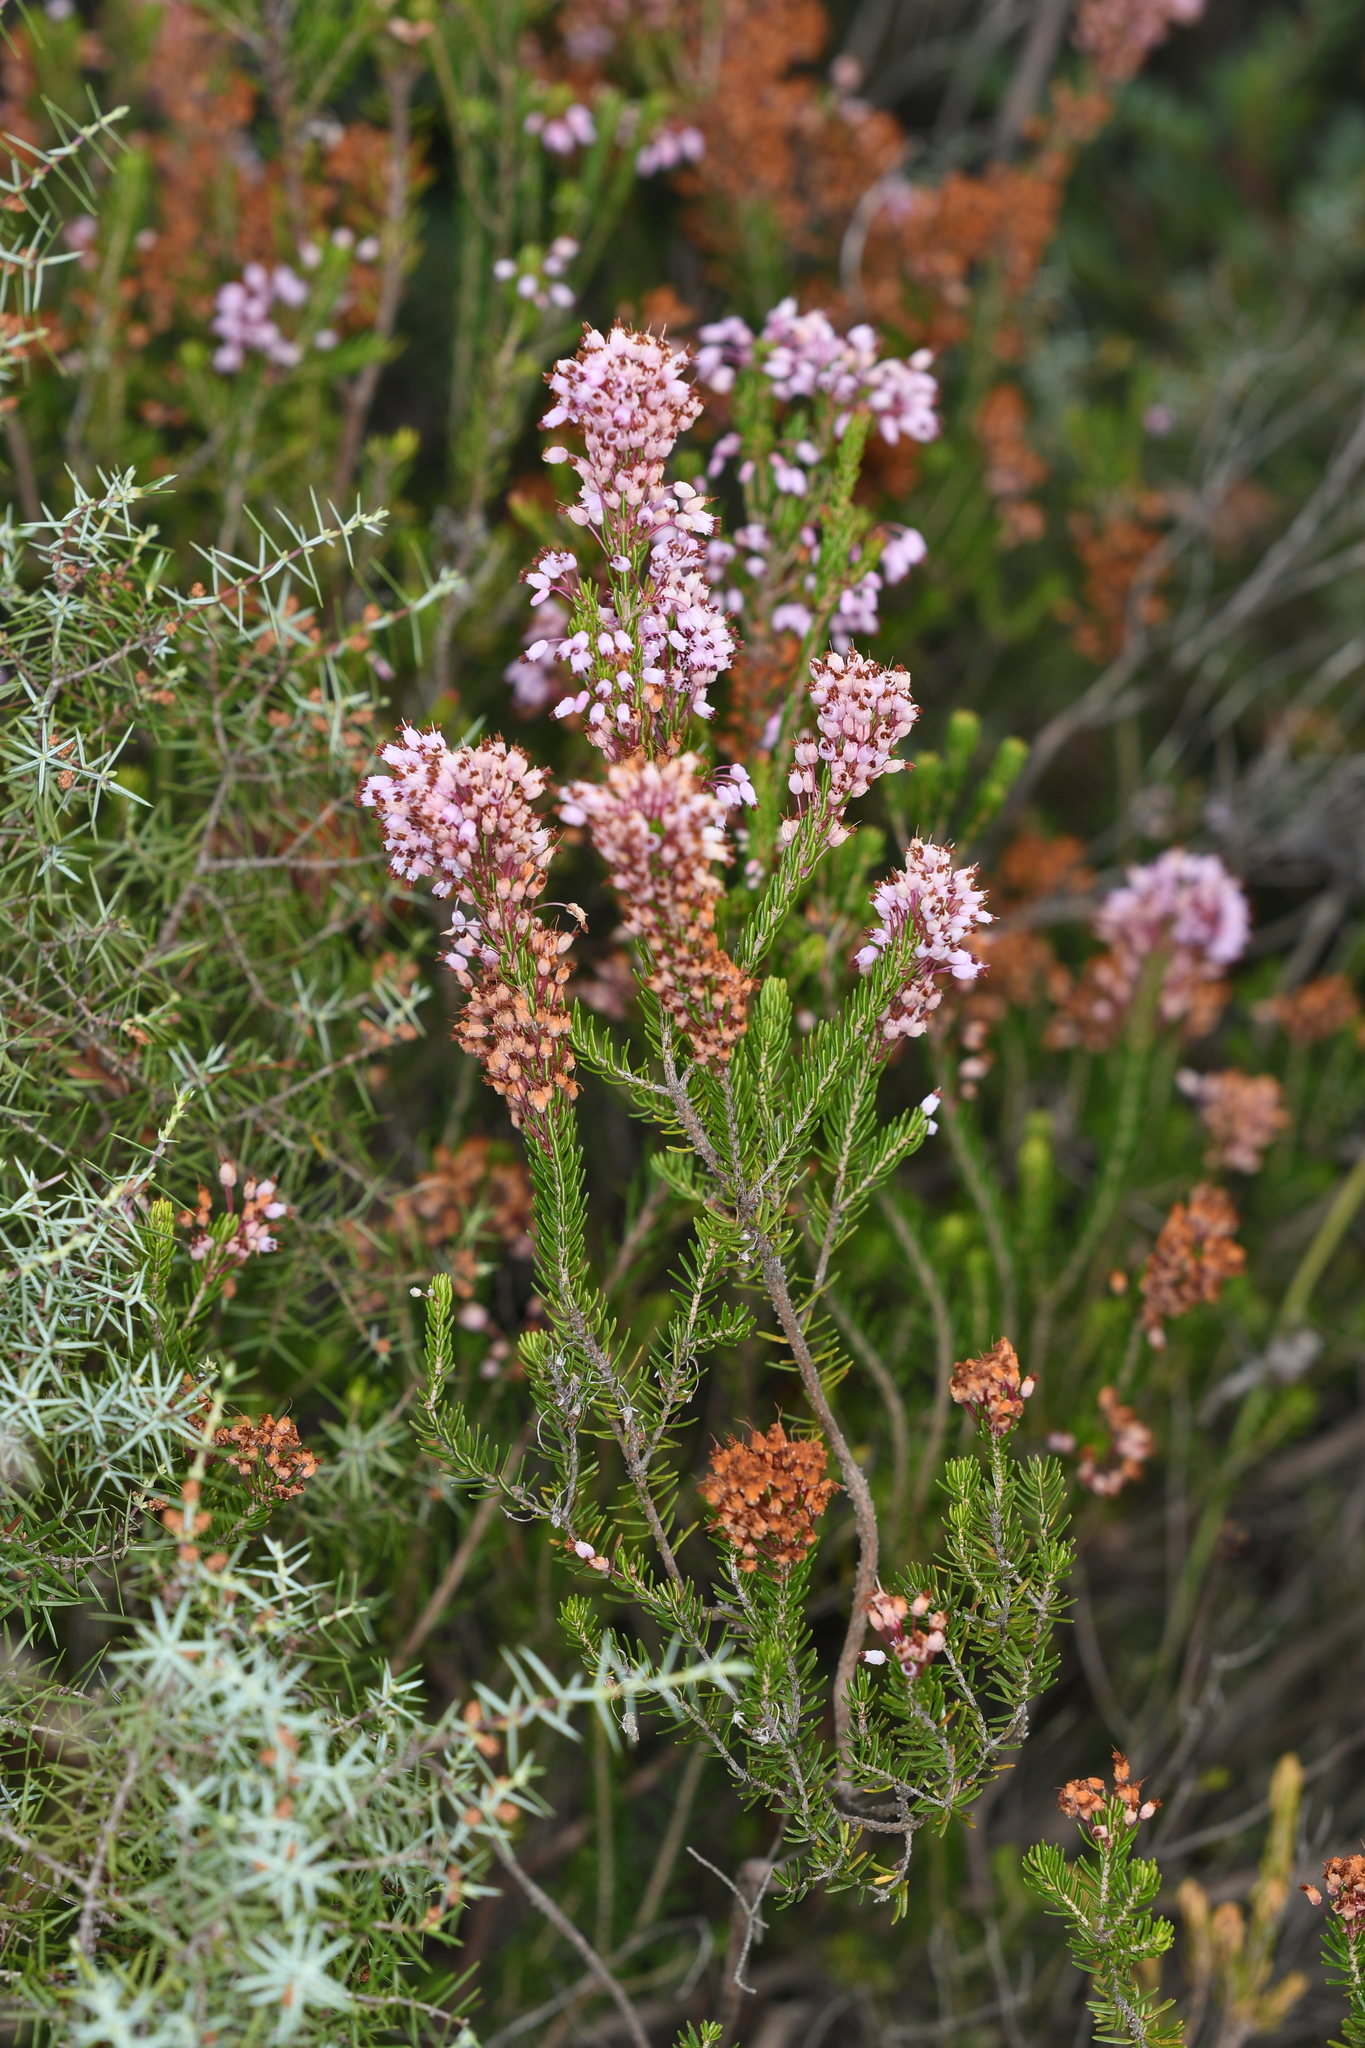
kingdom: Plantae
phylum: Tracheophyta
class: Magnoliopsida
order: Ericales
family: Ericaceae
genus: Erica
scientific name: Erica multiflora
